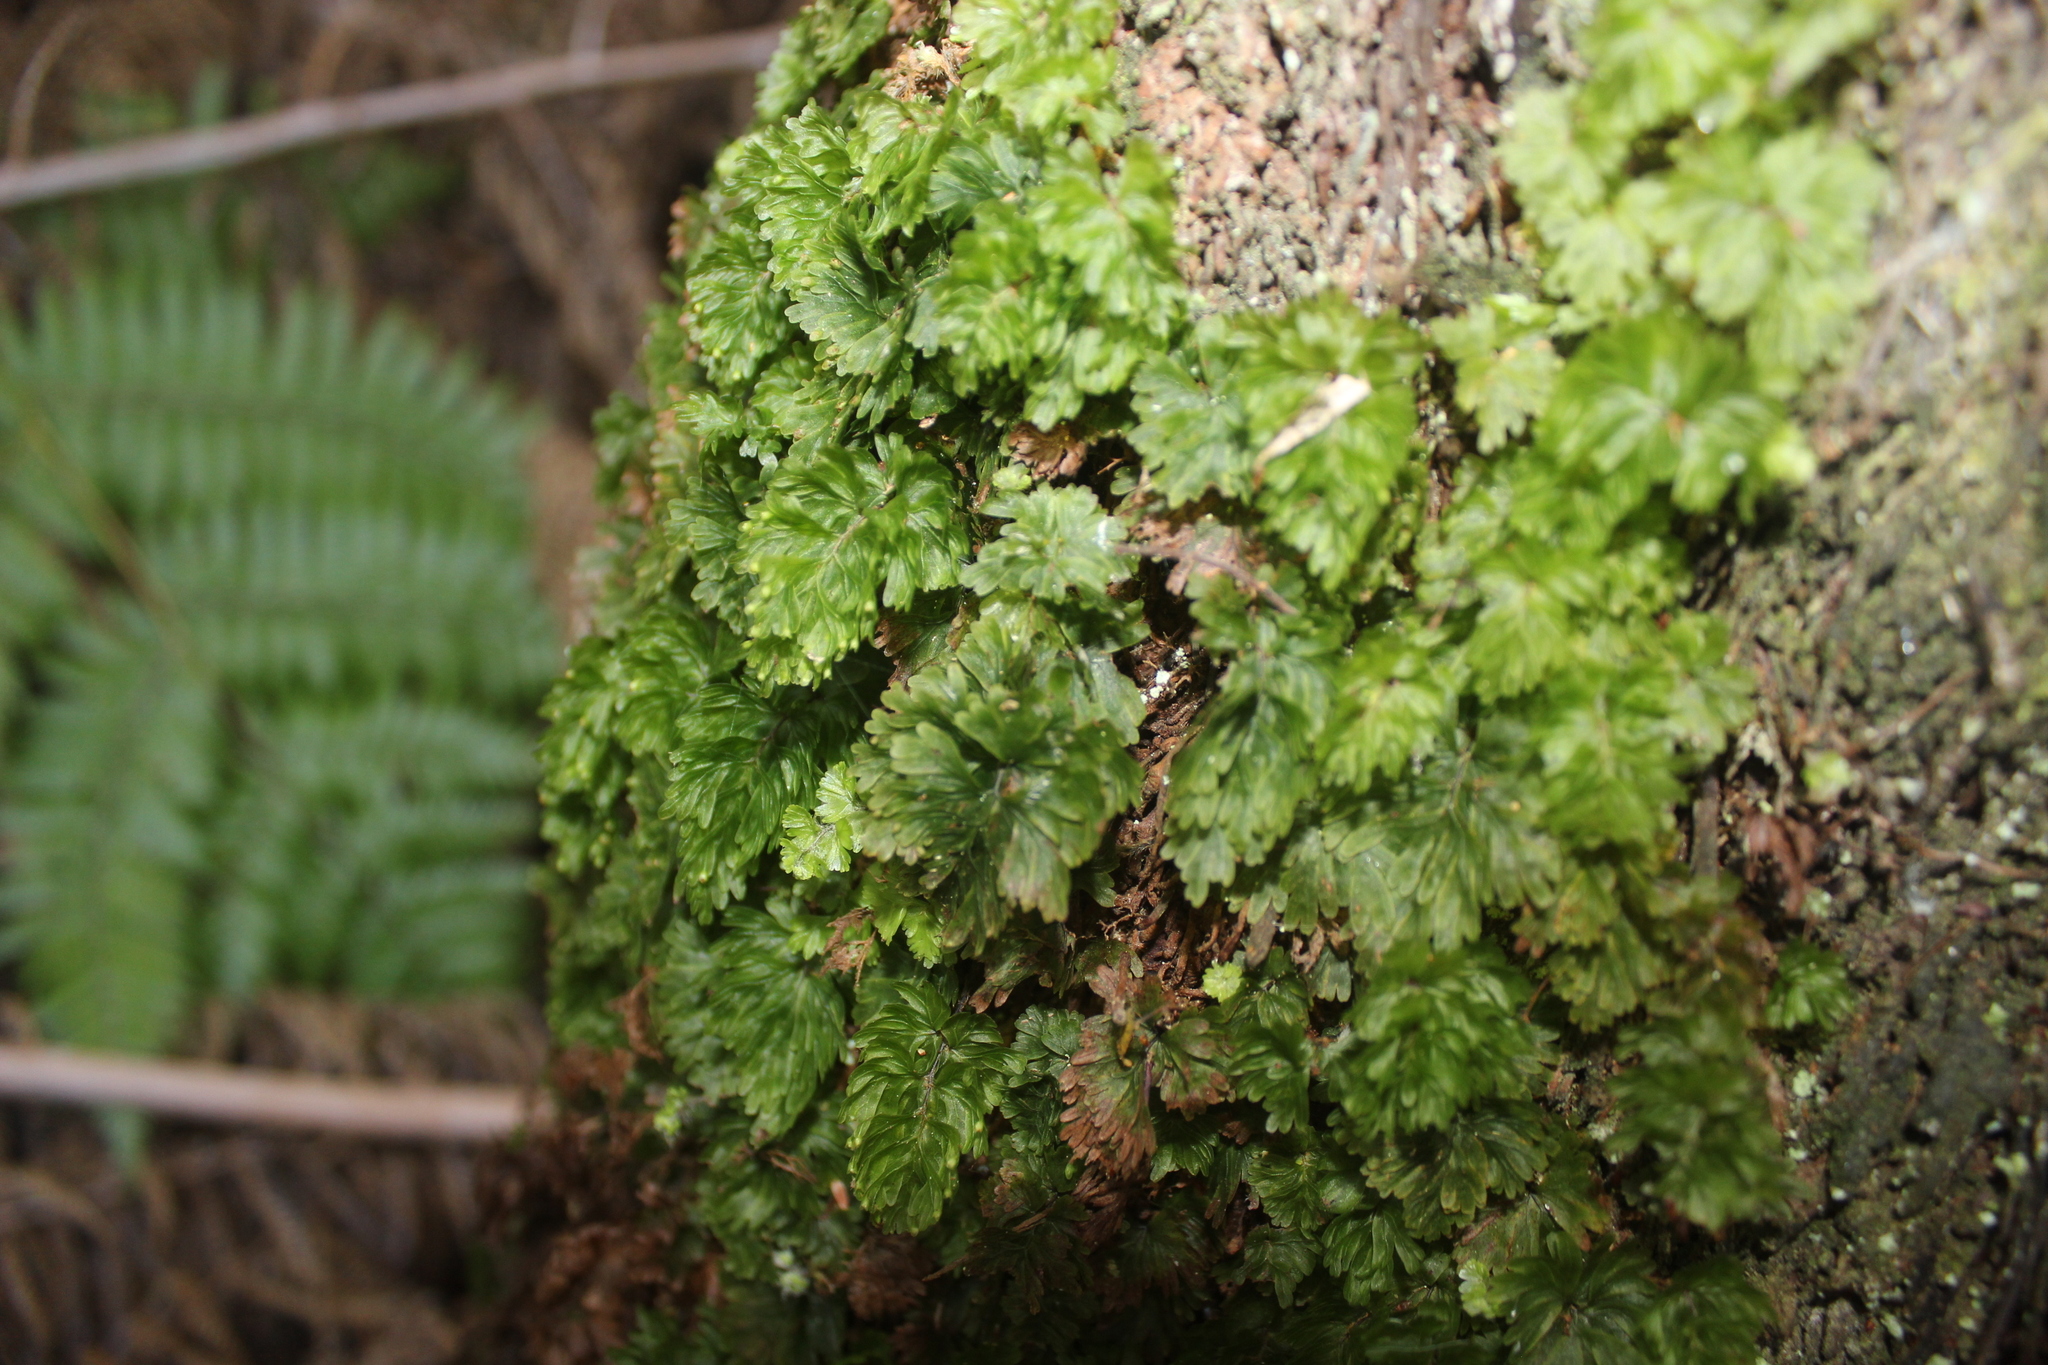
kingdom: Plantae
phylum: Tracheophyta
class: Polypodiopsida
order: Hymenophyllales
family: Hymenophyllaceae
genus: Hymenophyllum
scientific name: Hymenophyllum flabellatum
